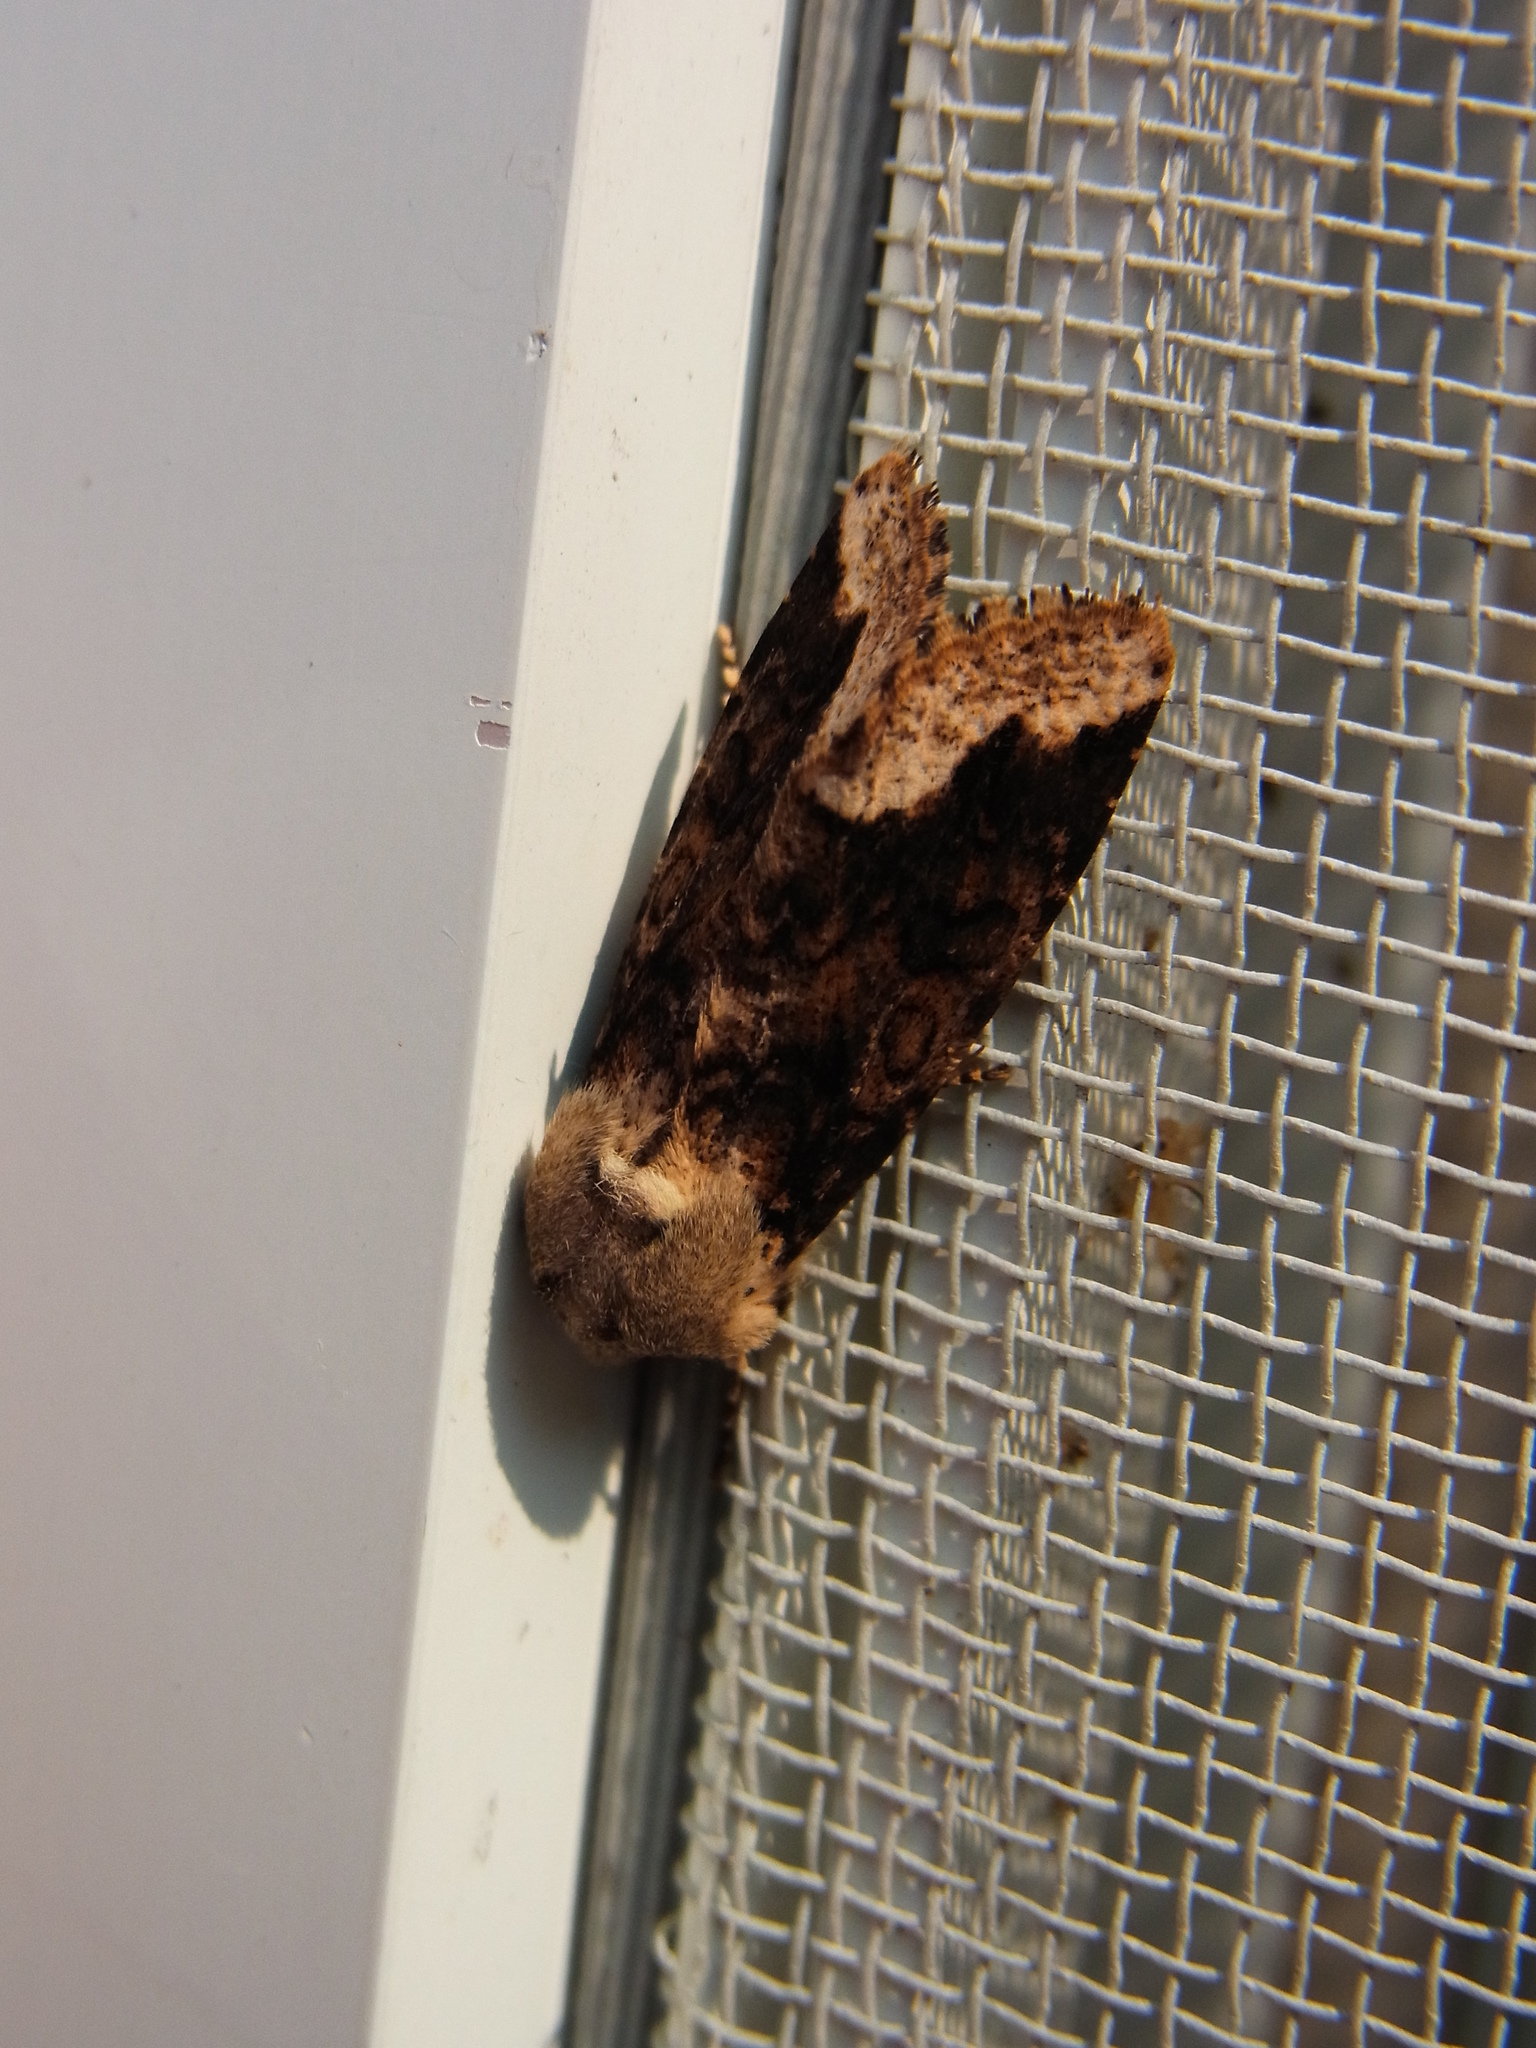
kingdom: Animalia
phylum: Arthropoda
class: Insecta
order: Lepidoptera
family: Noctuidae
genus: Orthosia
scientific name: Orthosia limbata
